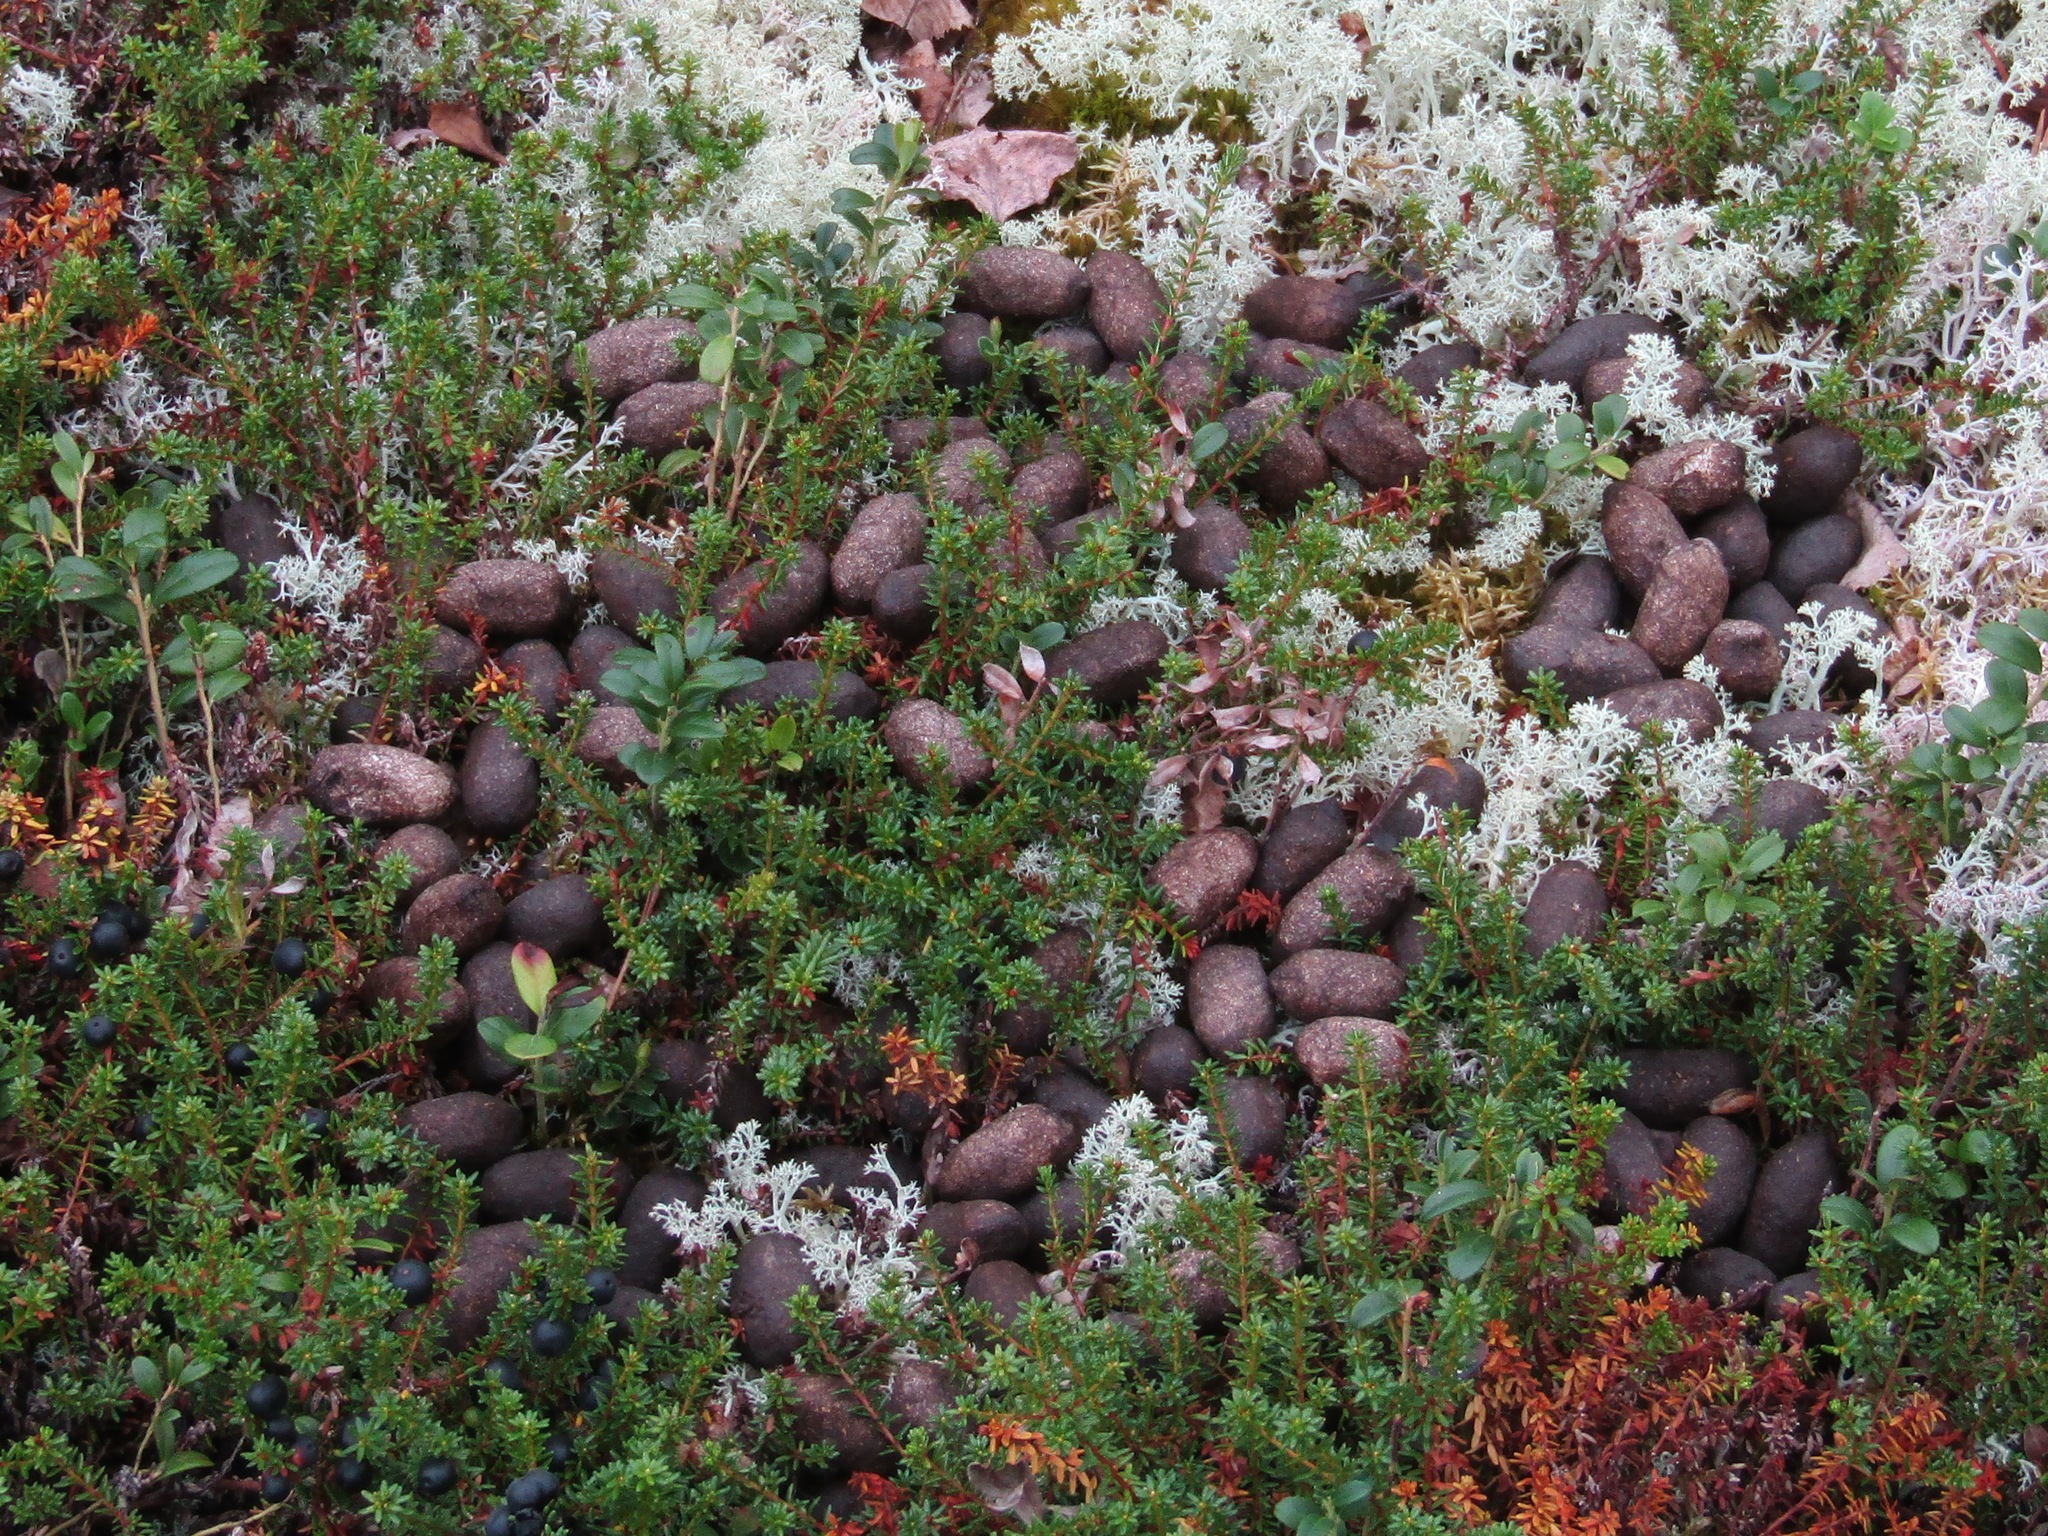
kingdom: Animalia
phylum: Chordata
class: Mammalia
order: Artiodactyla
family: Cervidae
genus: Alces
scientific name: Alces alces
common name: Moose
